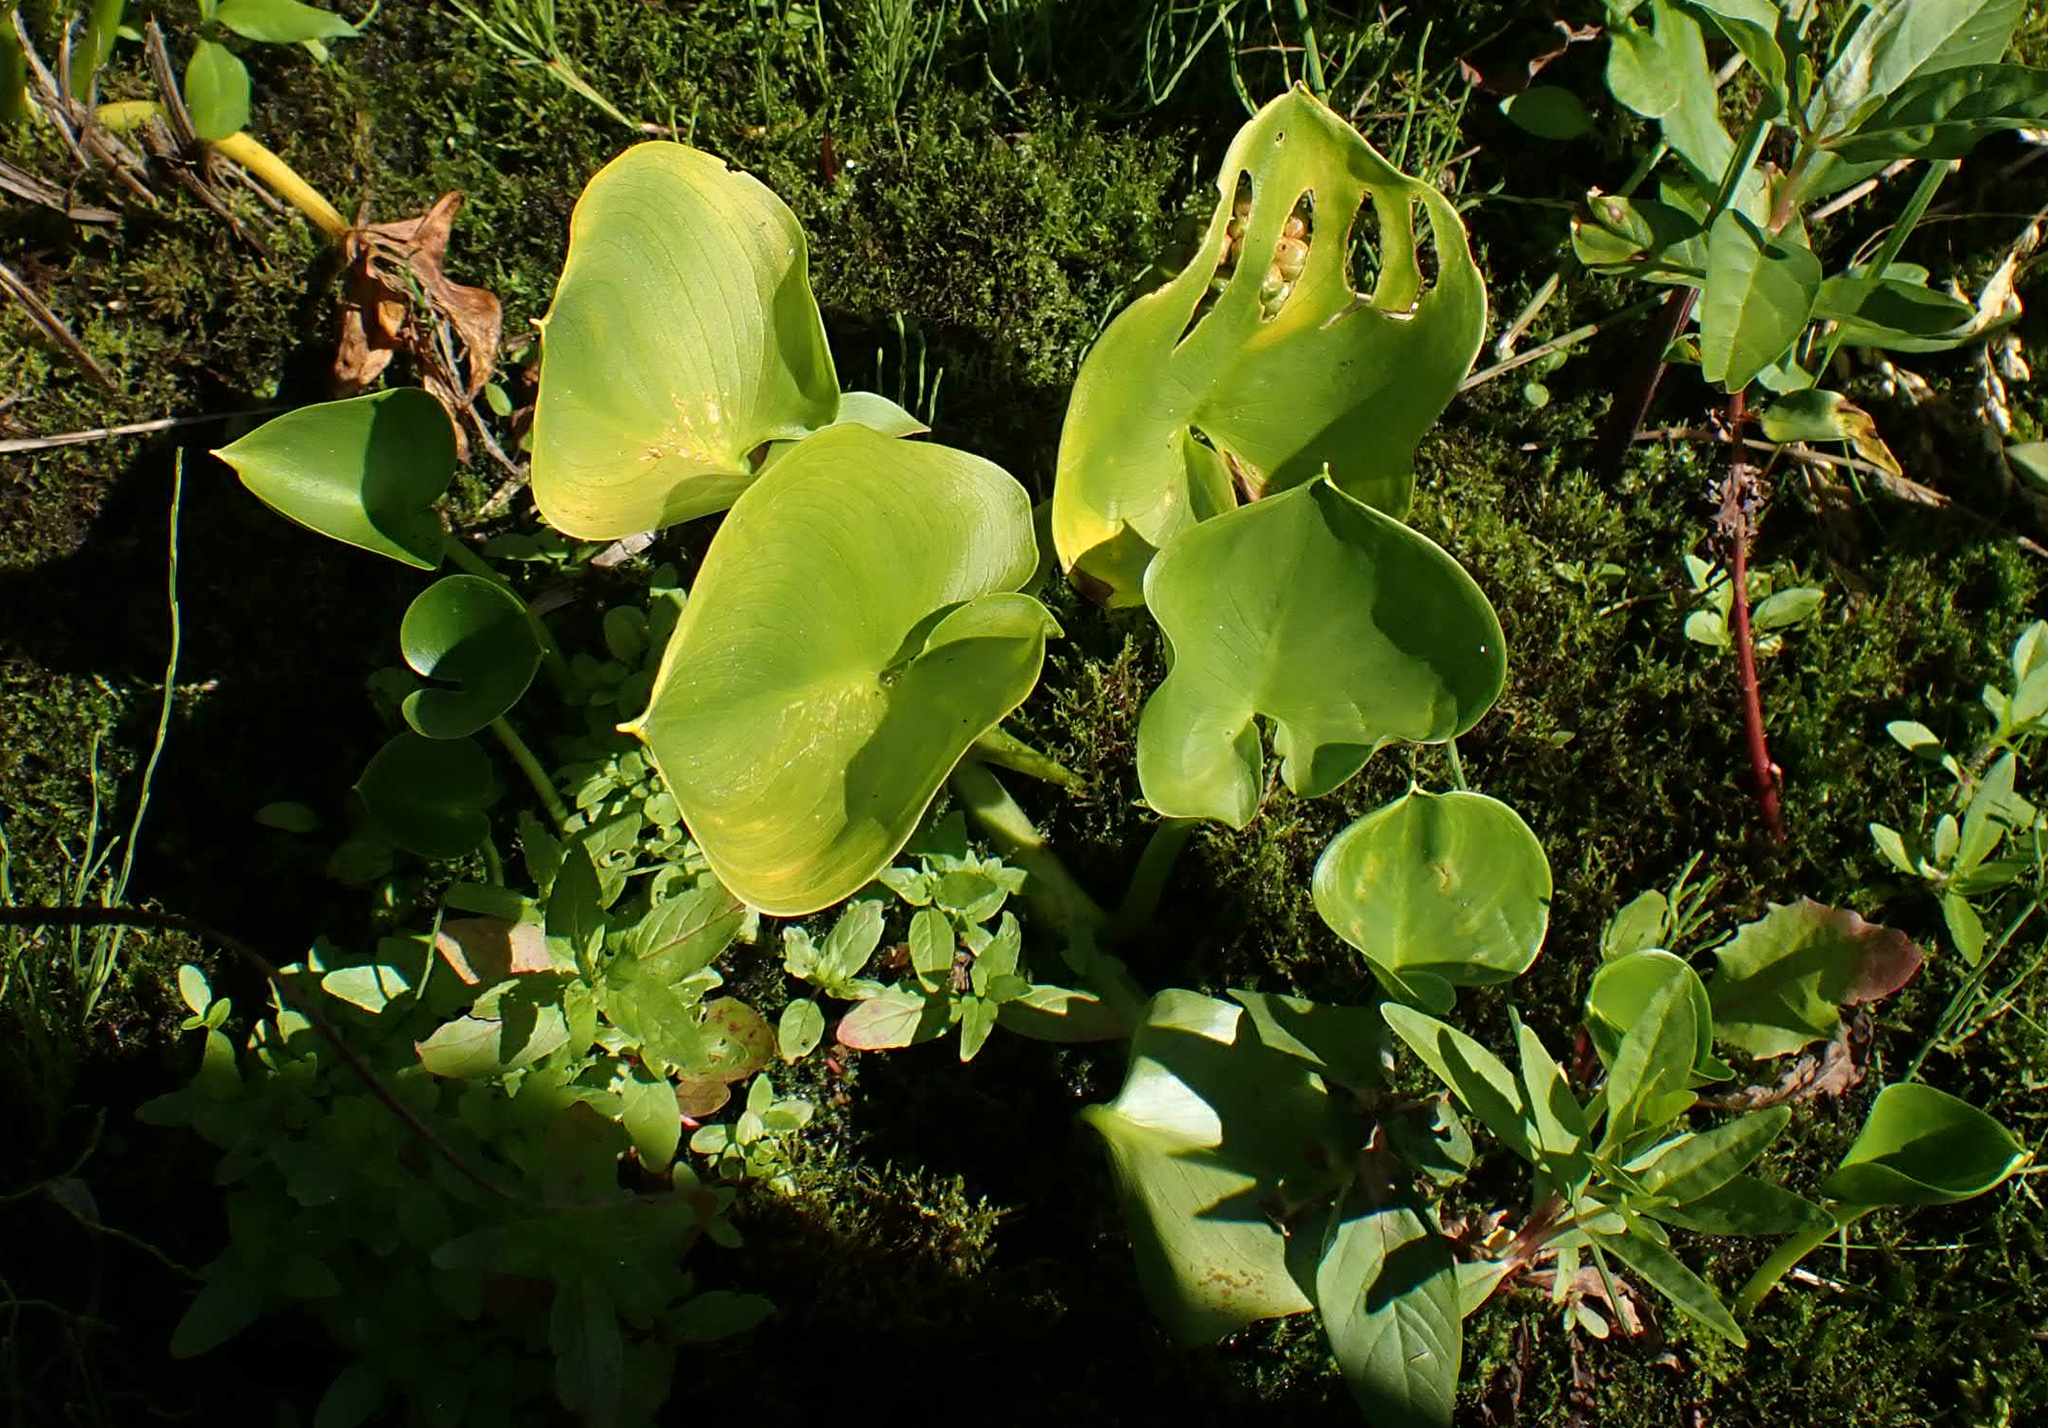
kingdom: Plantae
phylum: Tracheophyta
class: Liliopsida
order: Alismatales
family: Araceae
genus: Calla
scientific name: Calla palustris
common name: Bog arum
